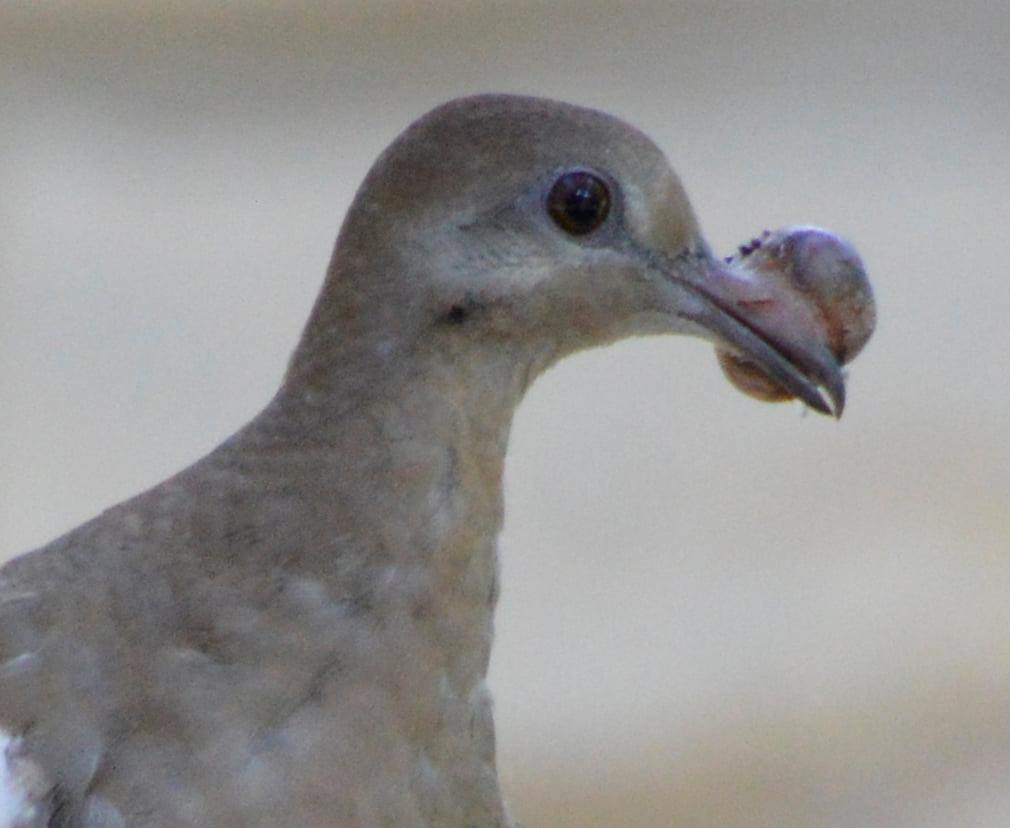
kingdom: Animalia
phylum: Chordata
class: Aves
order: Columbiformes
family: Columbidae
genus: Zenaida
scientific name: Zenaida asiatica
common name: White-winged dove
